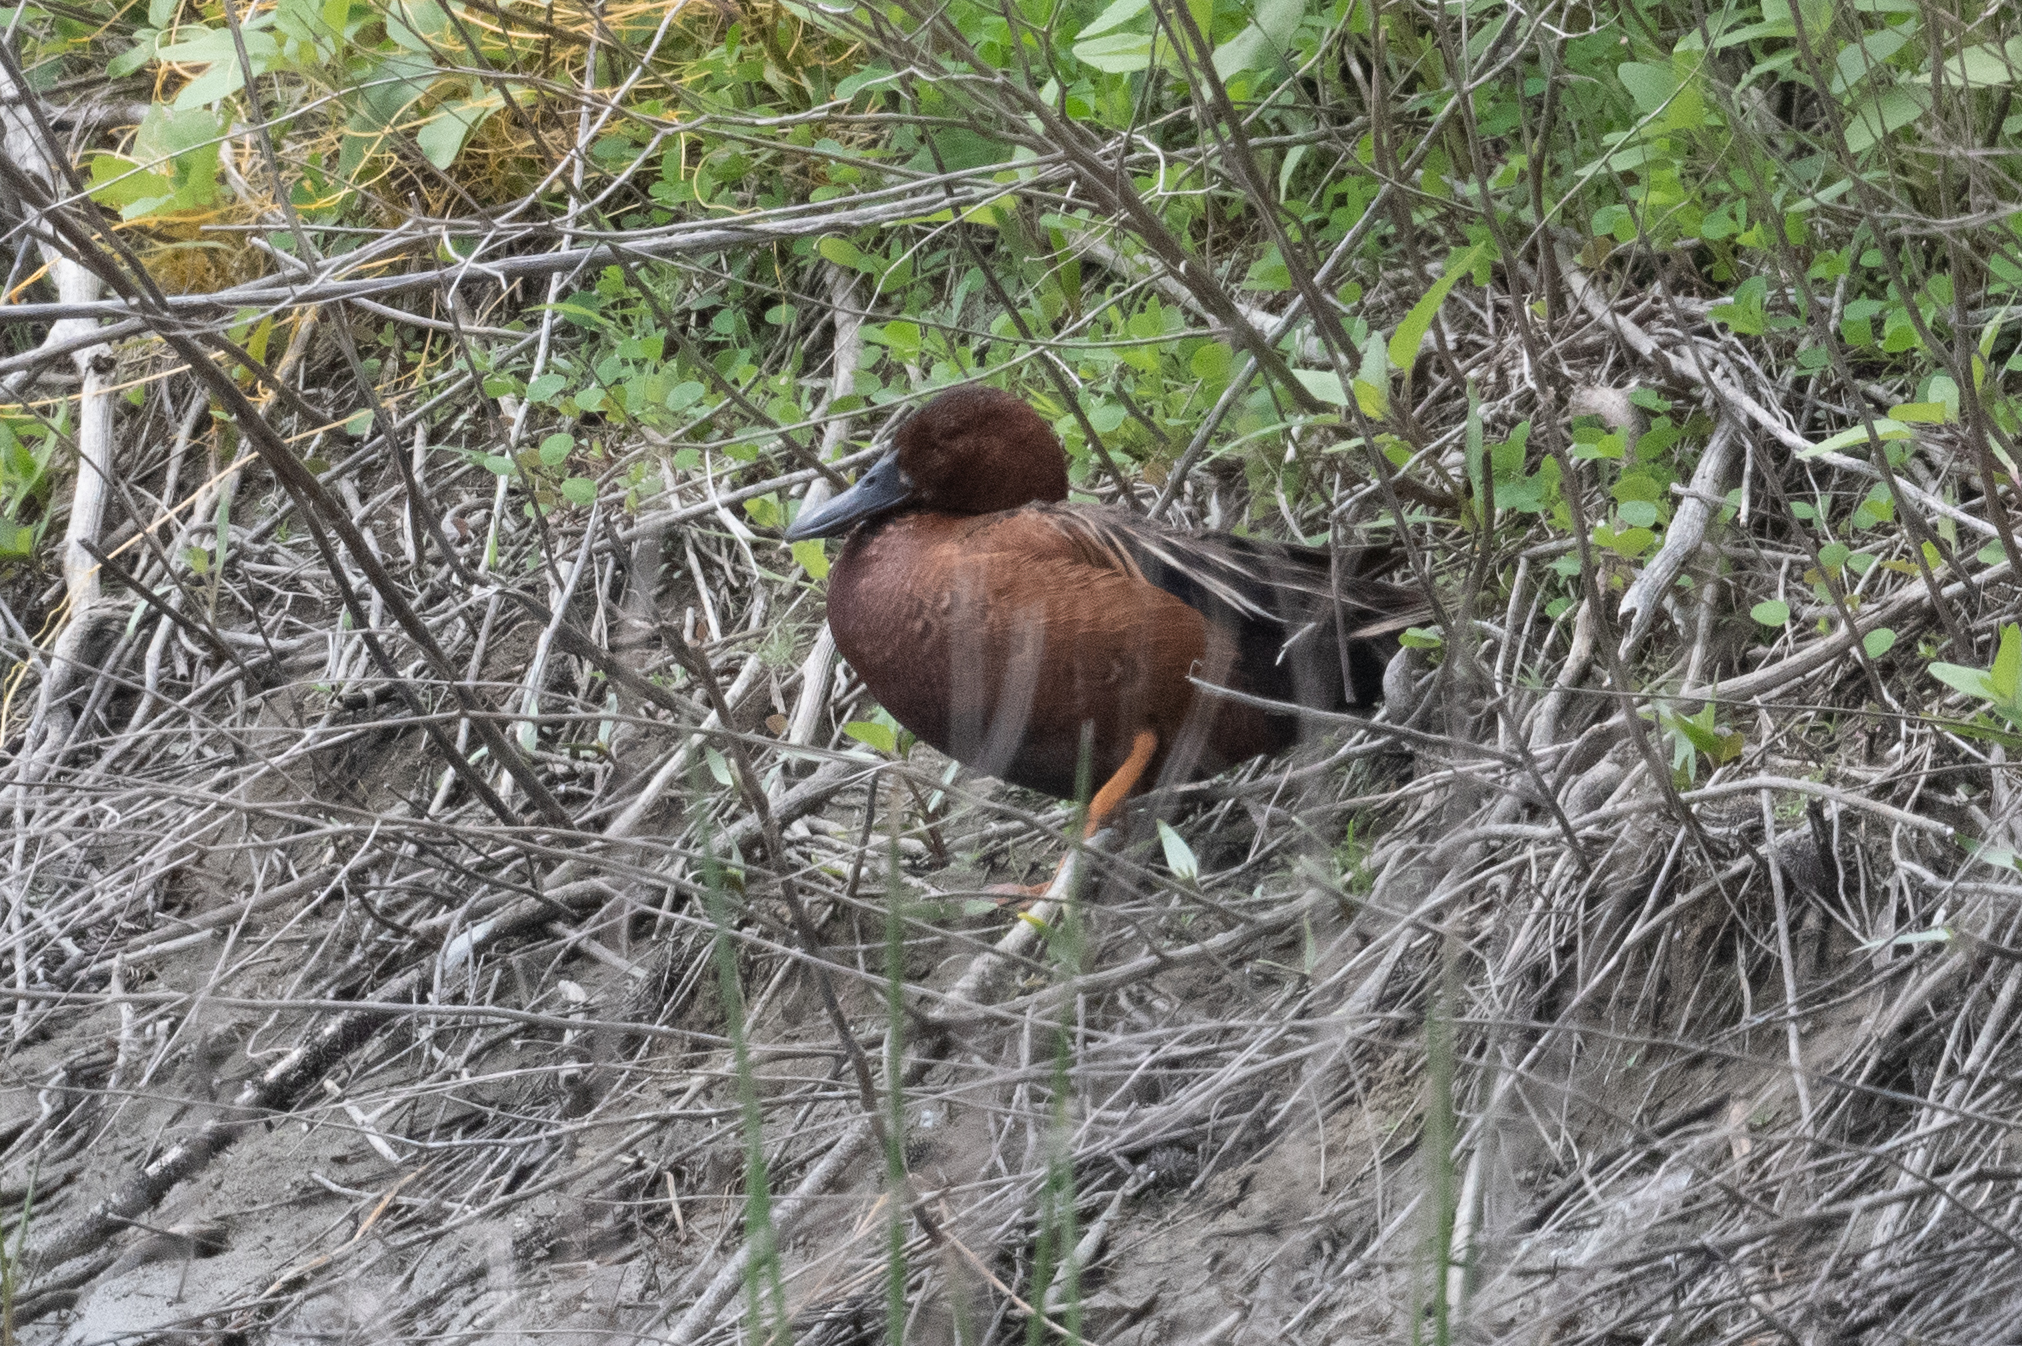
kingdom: Animalia
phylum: Chordata
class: Aves
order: Anseriformes
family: Anatidae
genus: Spatula
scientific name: Spatula cyanoptera
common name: Cinnamon teal
